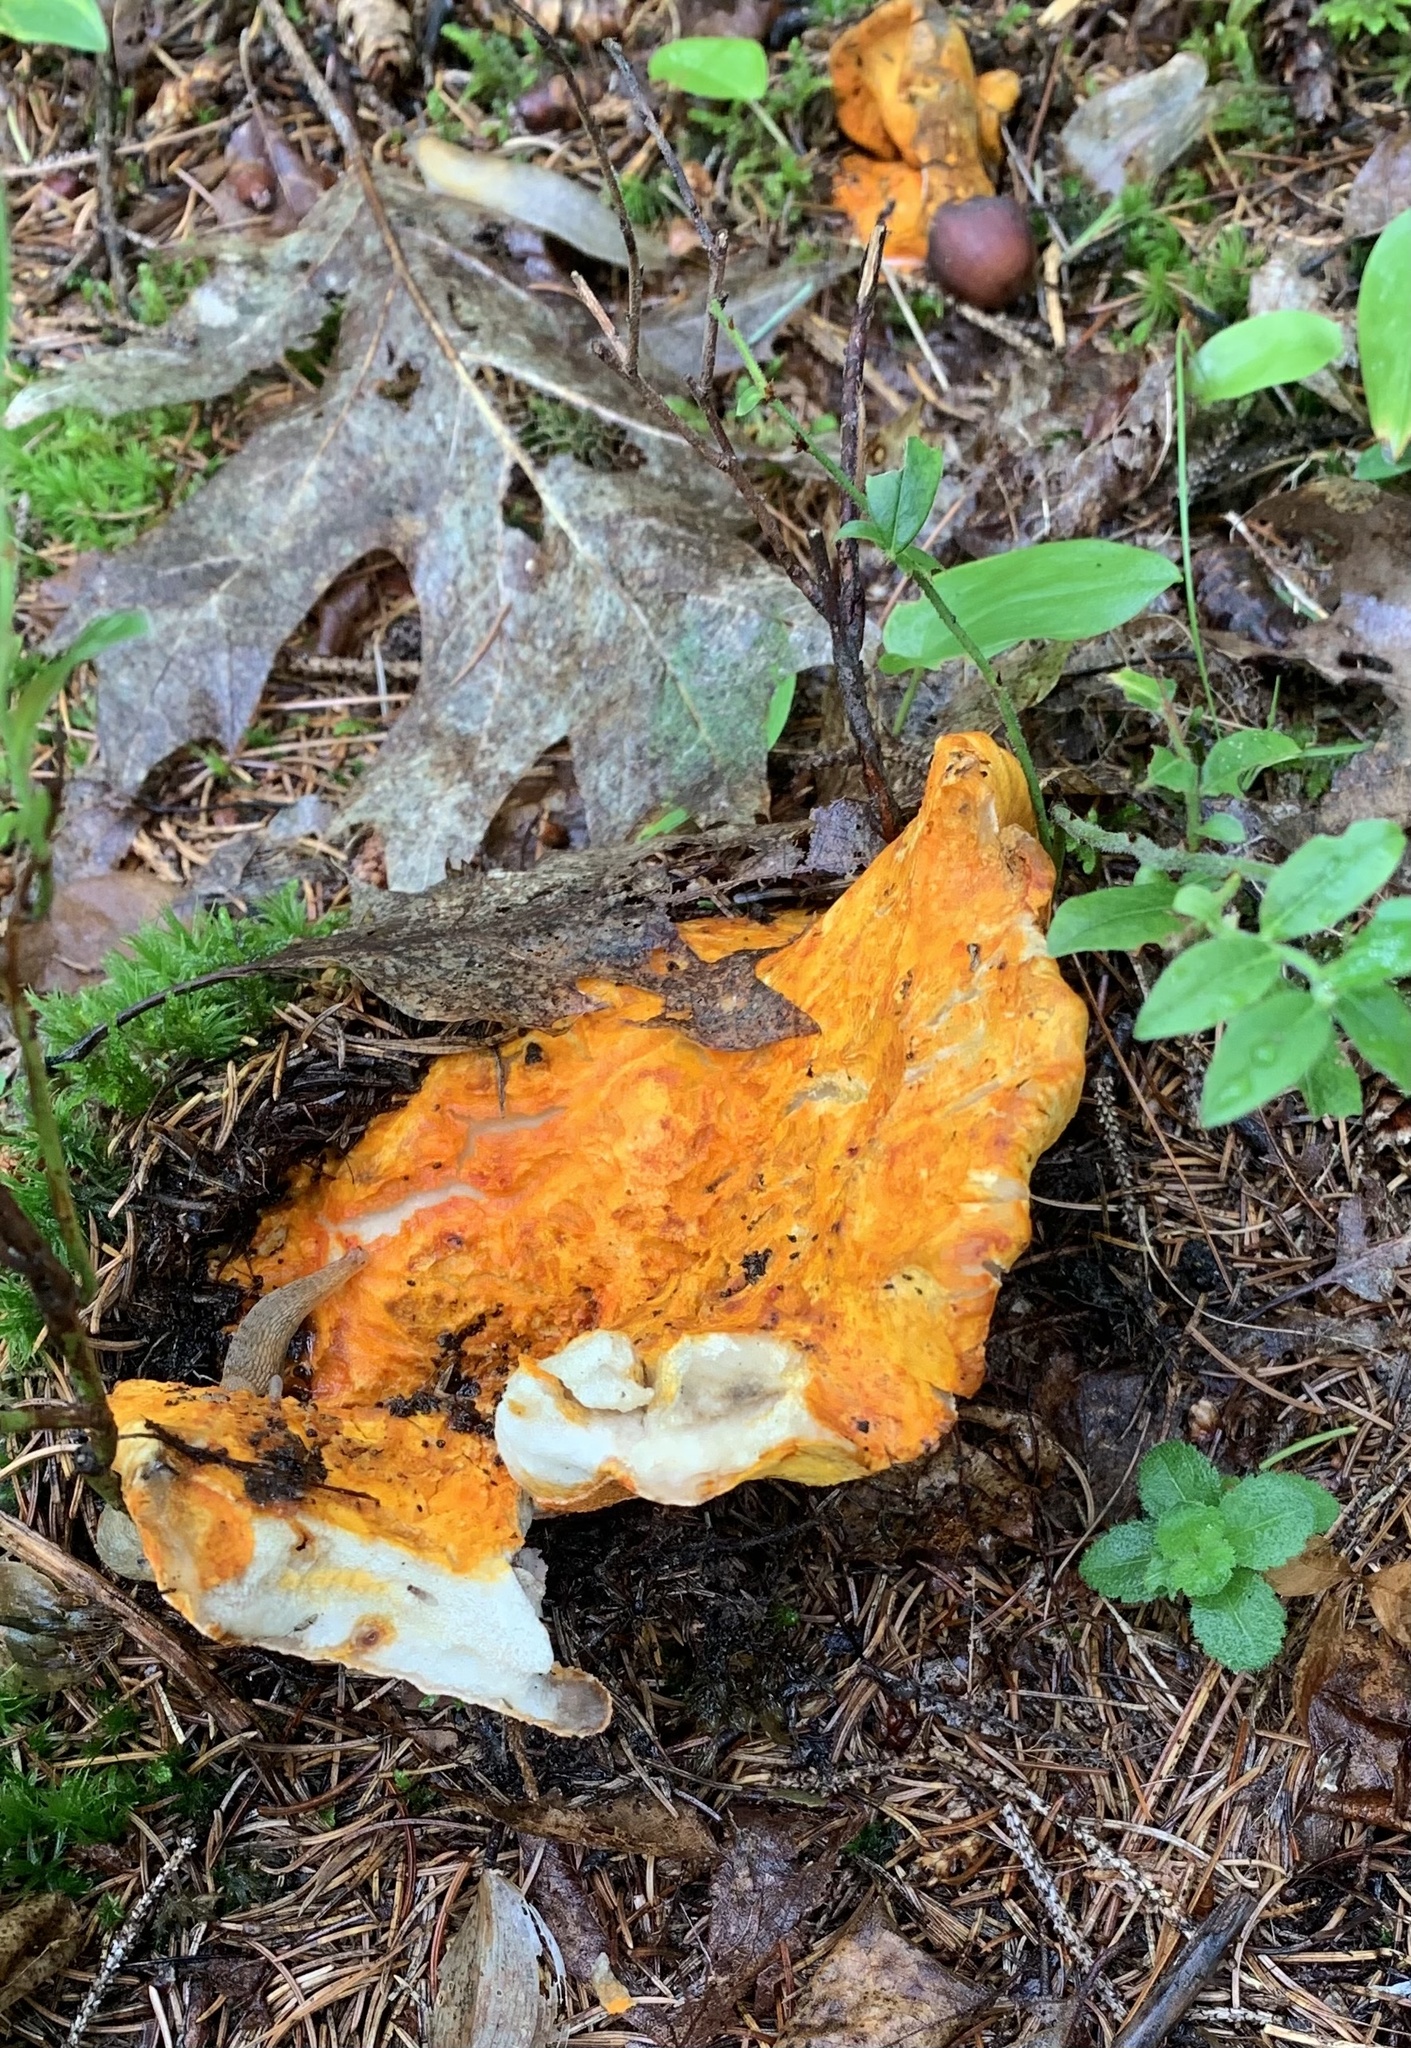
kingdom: Fungi
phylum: Ascomycota
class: Sordariomycetes
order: Hypocreales
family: Hypocreaceae
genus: Hypomyces
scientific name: Hypomyces lactifluorum
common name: Lobster mushroom
